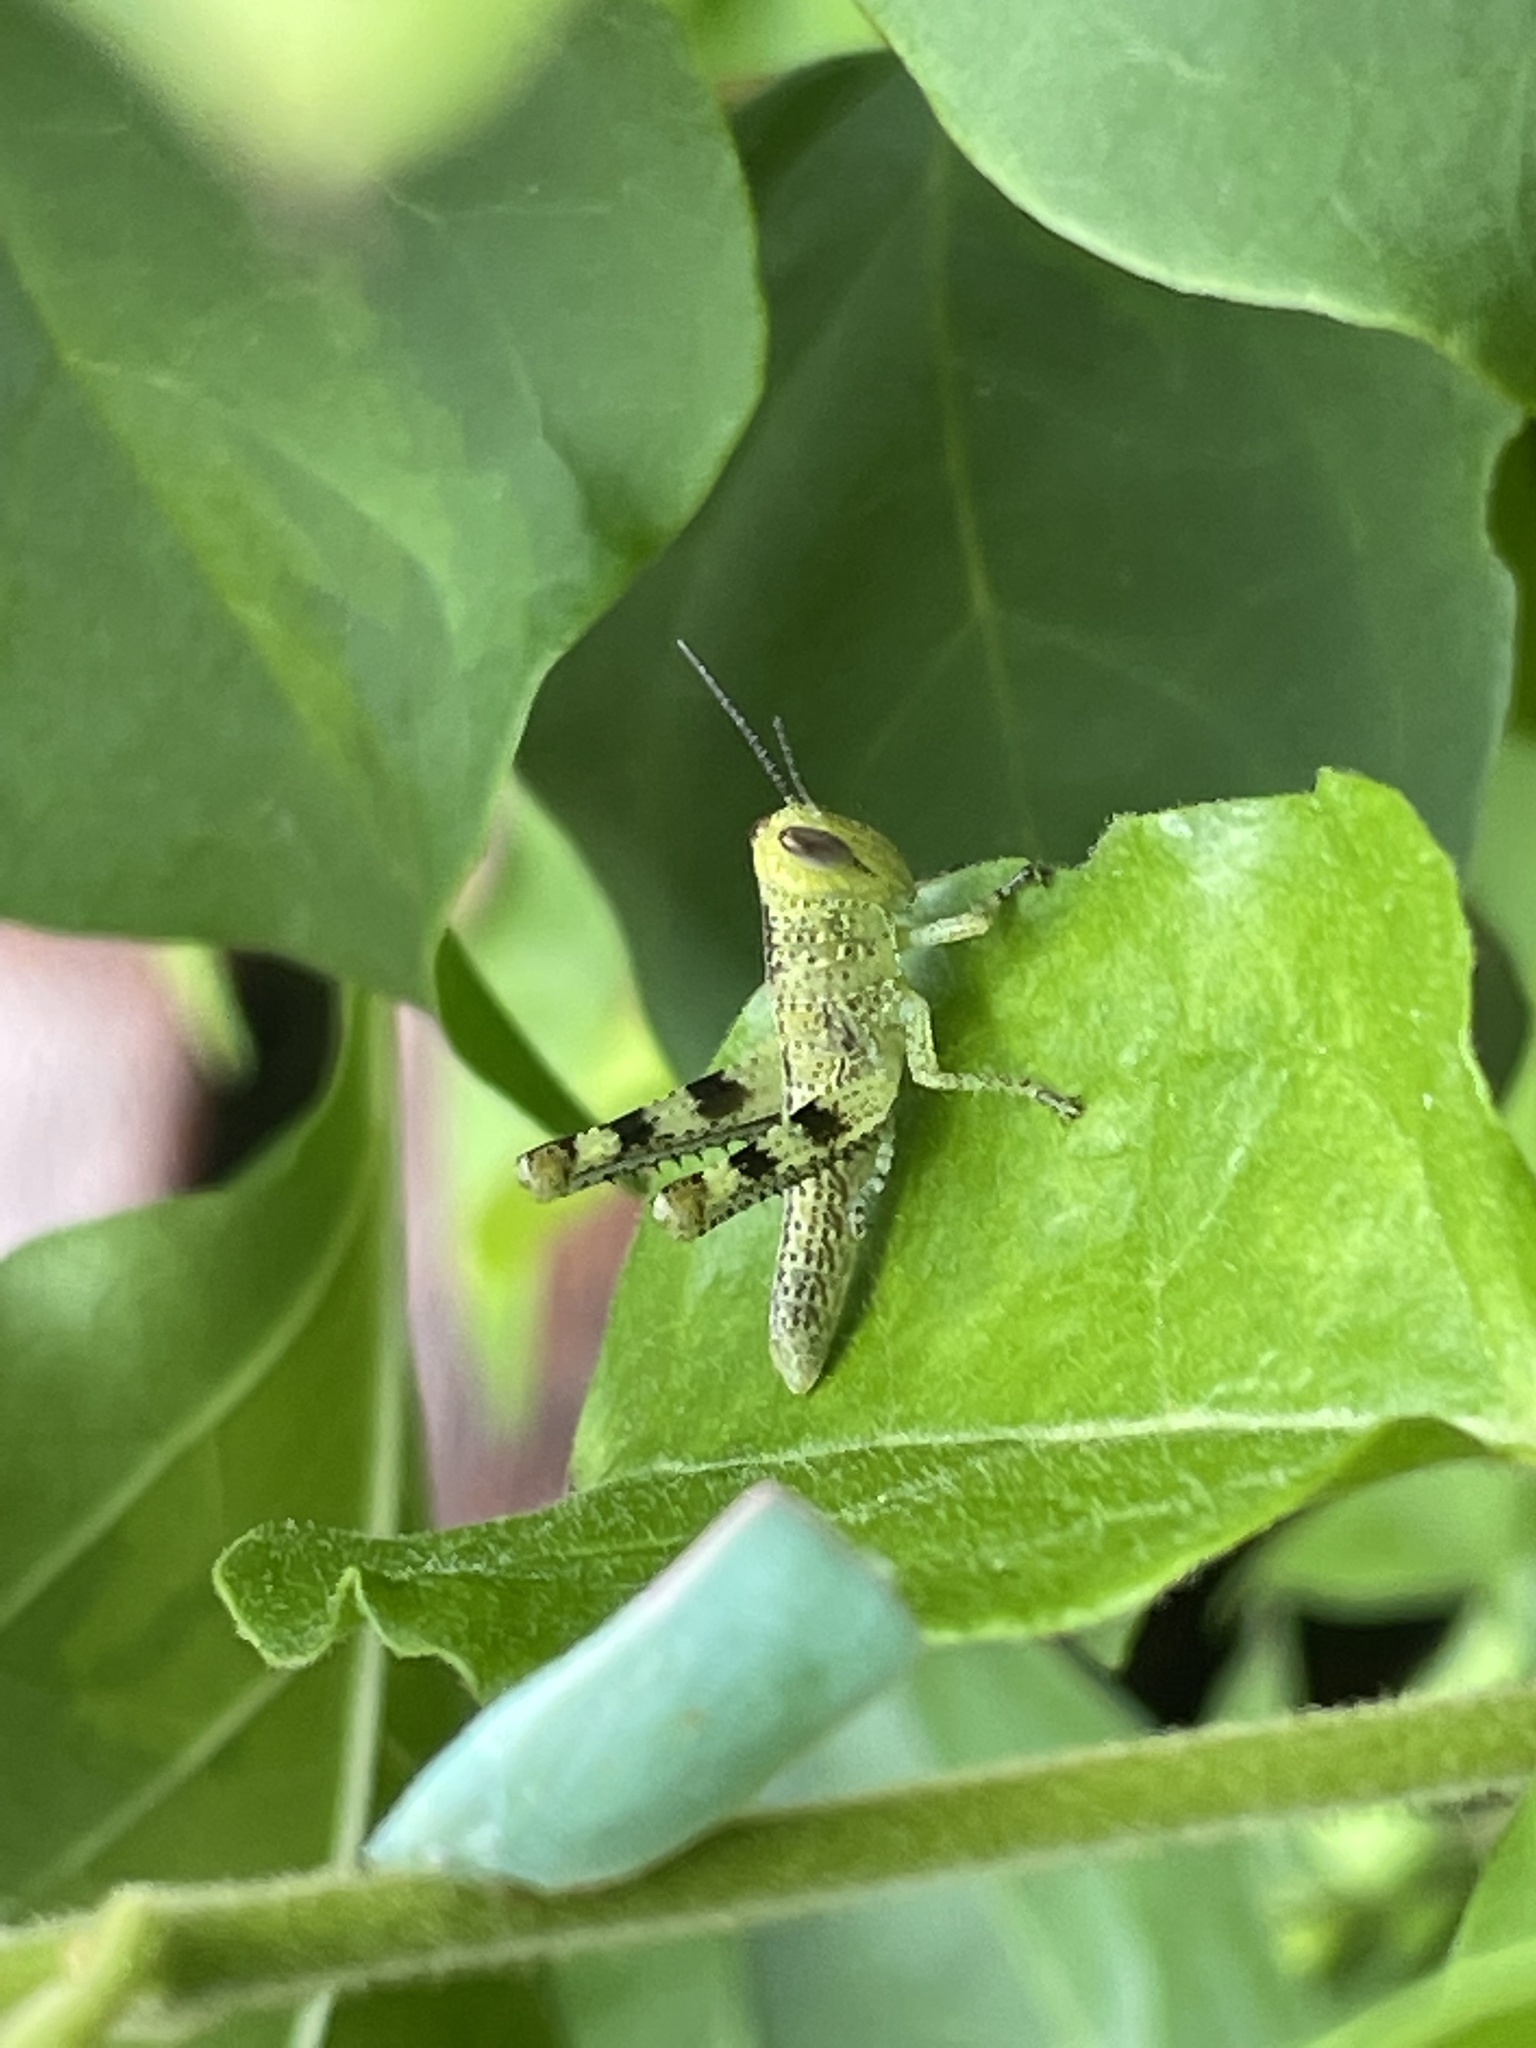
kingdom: Animalia
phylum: Arthropoda
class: Insecta
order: Orthoptera
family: Acrididae
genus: Valanga
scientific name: Valanga irregularis
